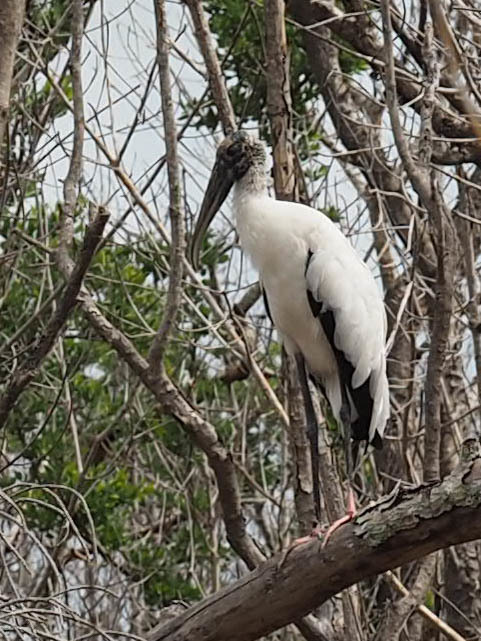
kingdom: Animalia
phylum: Chordata
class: Aves
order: Ciconiiformes
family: Ciconiidae
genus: Mycteria
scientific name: Mycteria americana
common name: Wood stork
